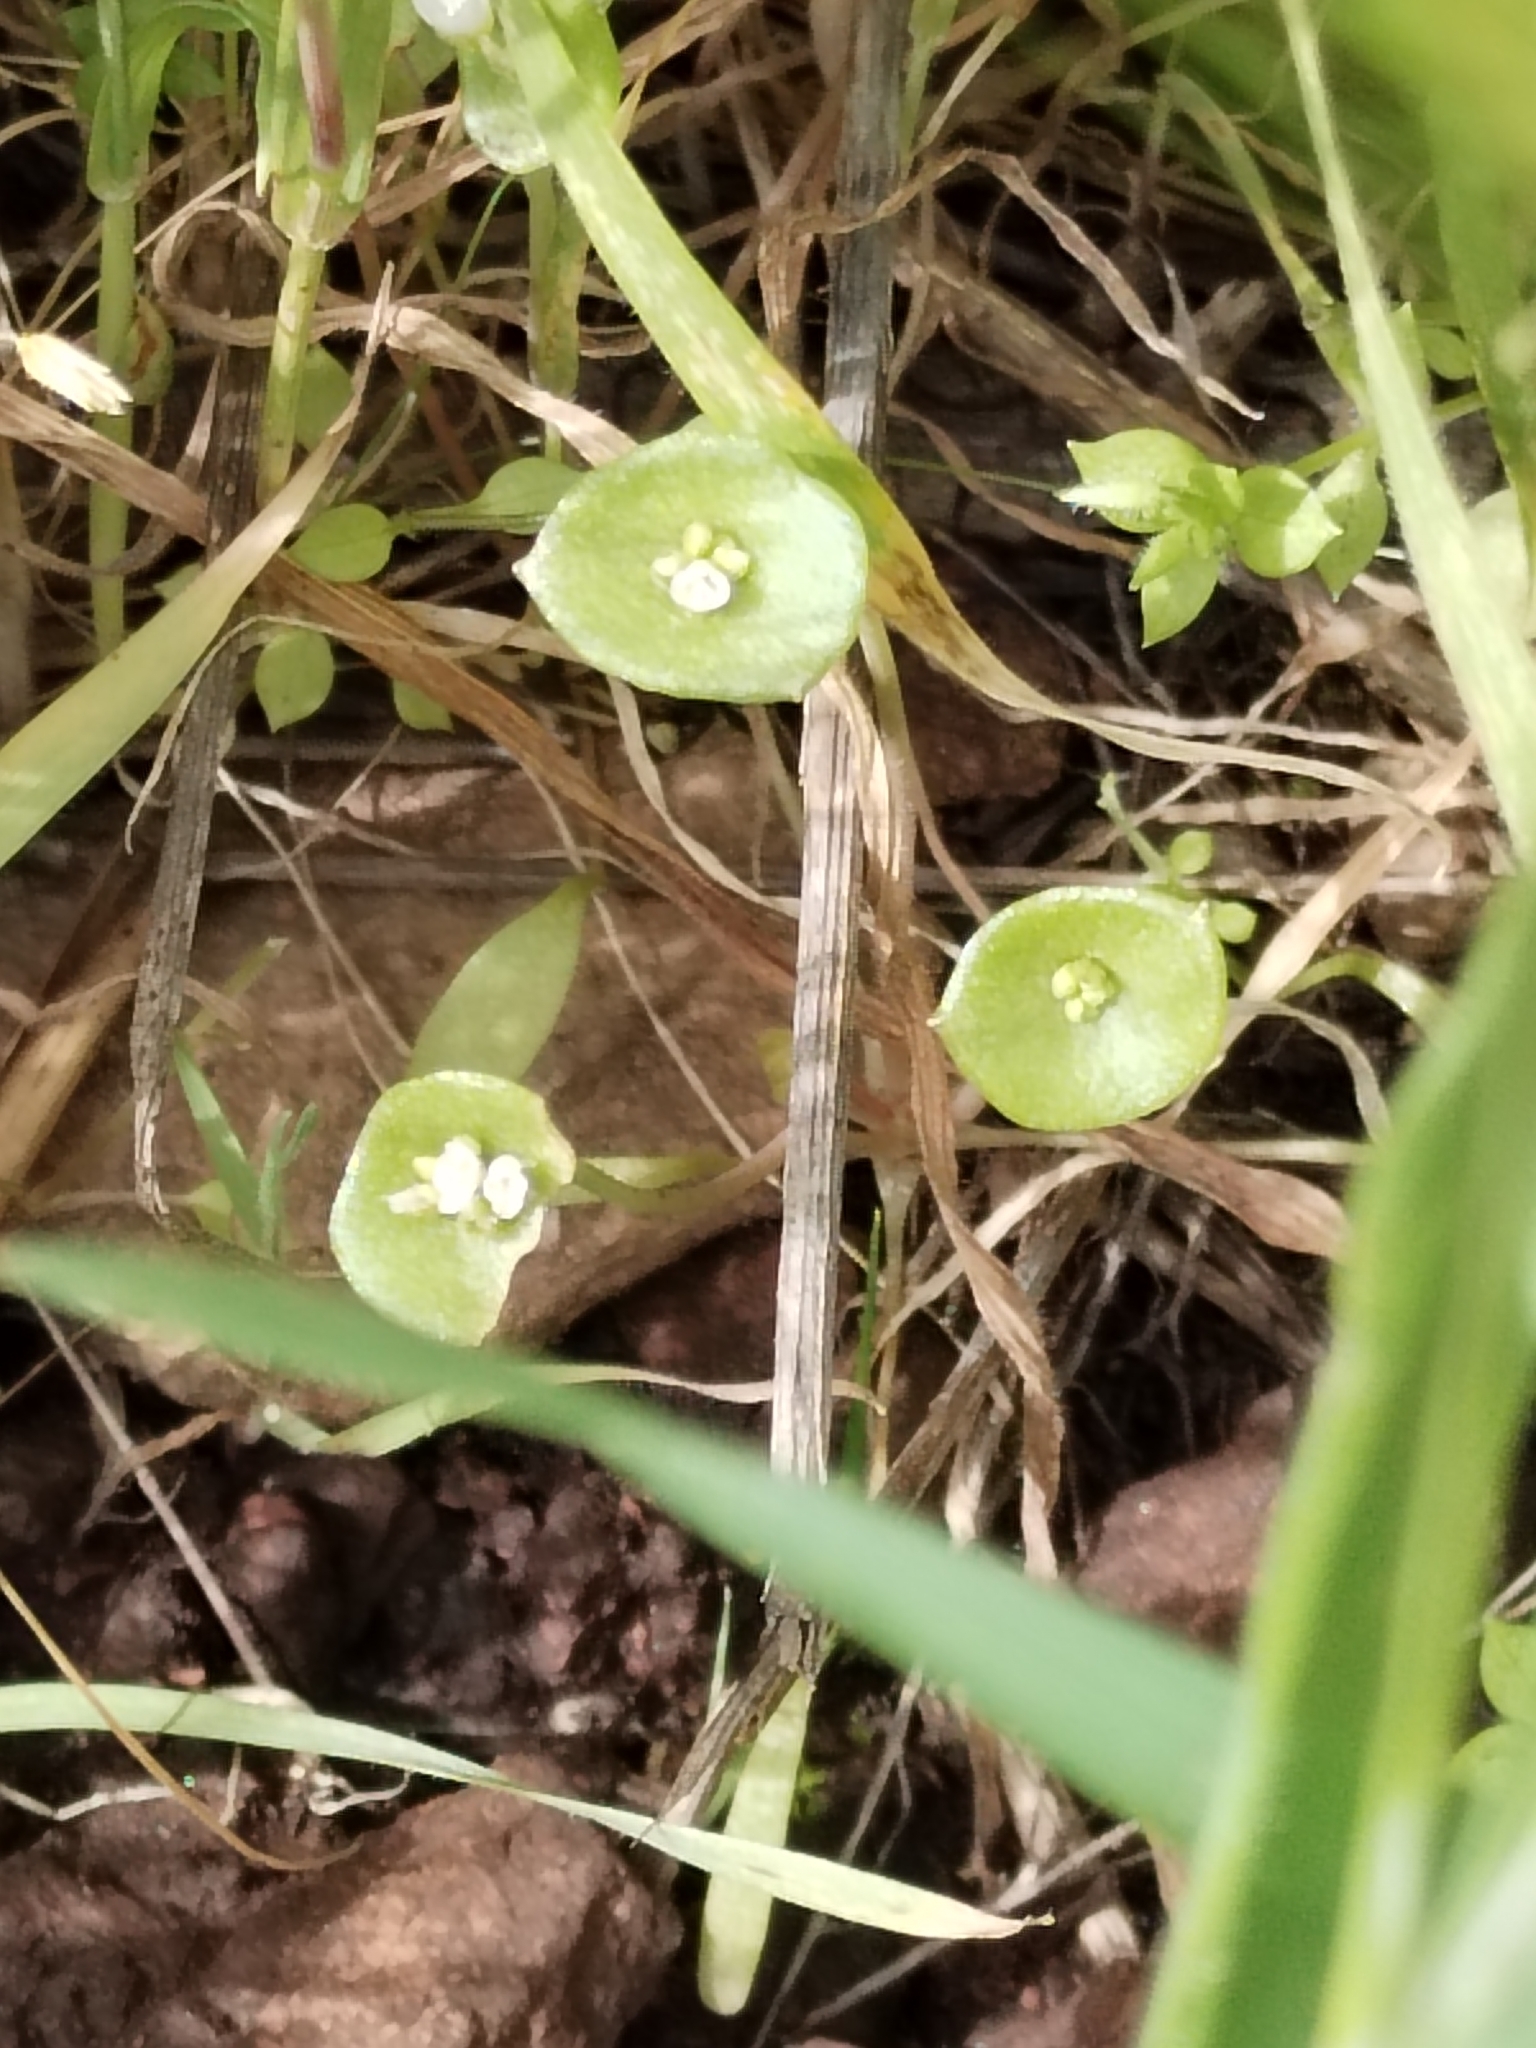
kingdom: Plantae
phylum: Tracheophyta
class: Magnoliopsida
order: Caryophyllales
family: Montiaceae
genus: Claytonia
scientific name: Claytonia perfoliata
